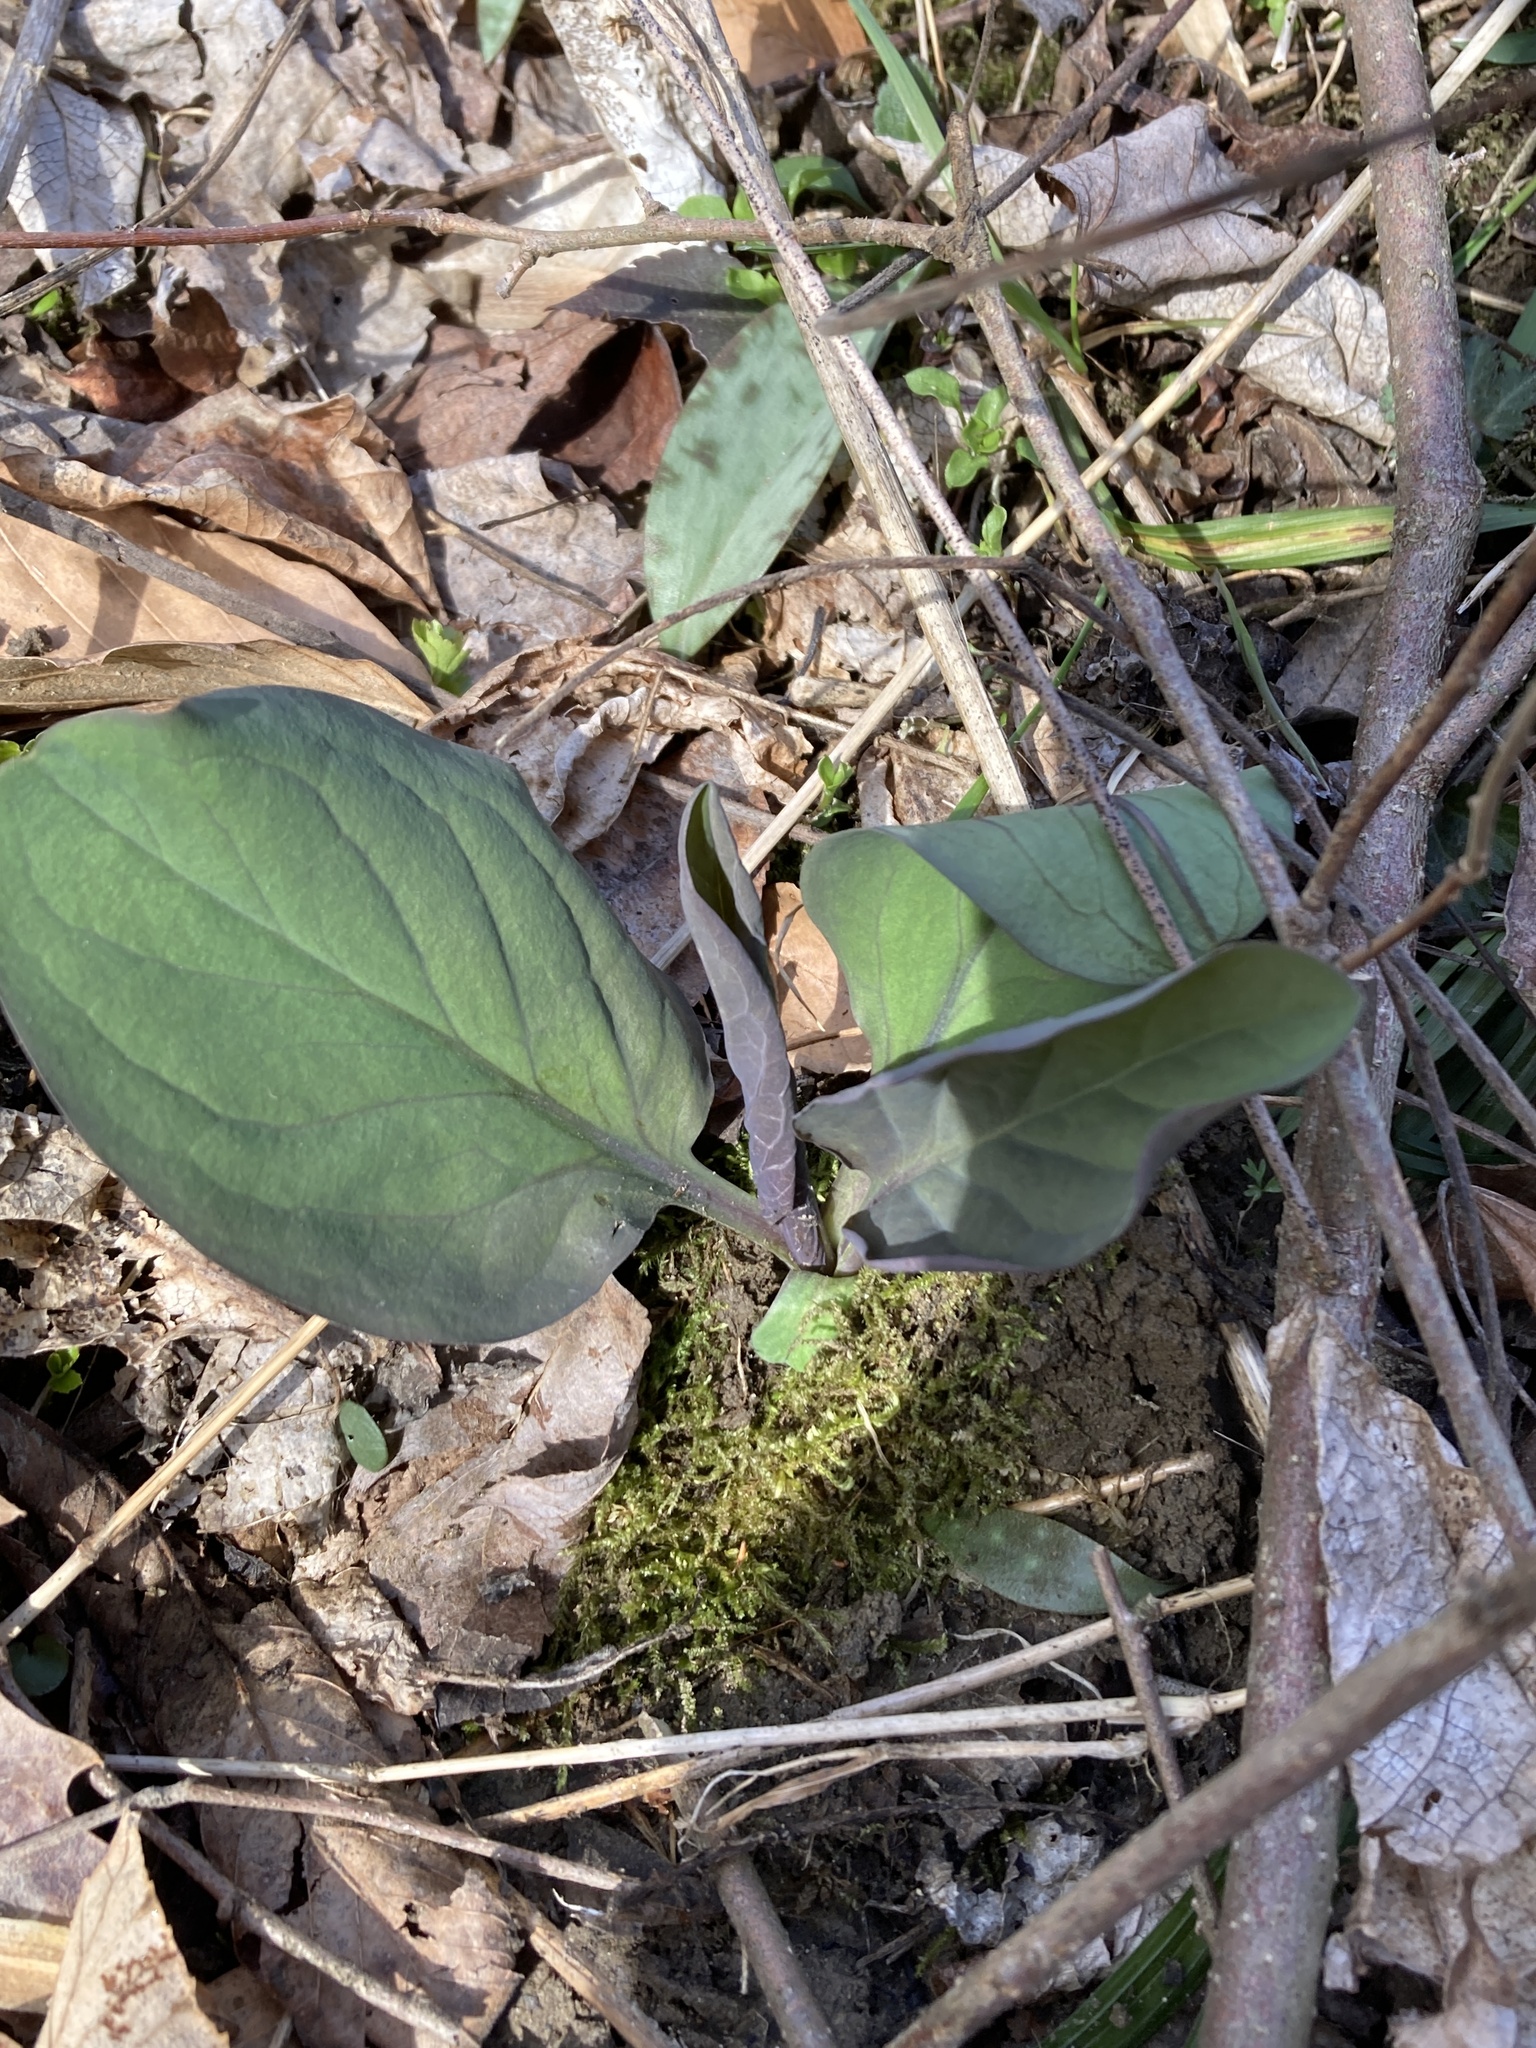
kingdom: Plantae
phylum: Tracheophyta
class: Magnoliopsida
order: Boraginales
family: Boraginaceae
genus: Mertensia
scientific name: Mertensia virginica
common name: Virginia bluebells
